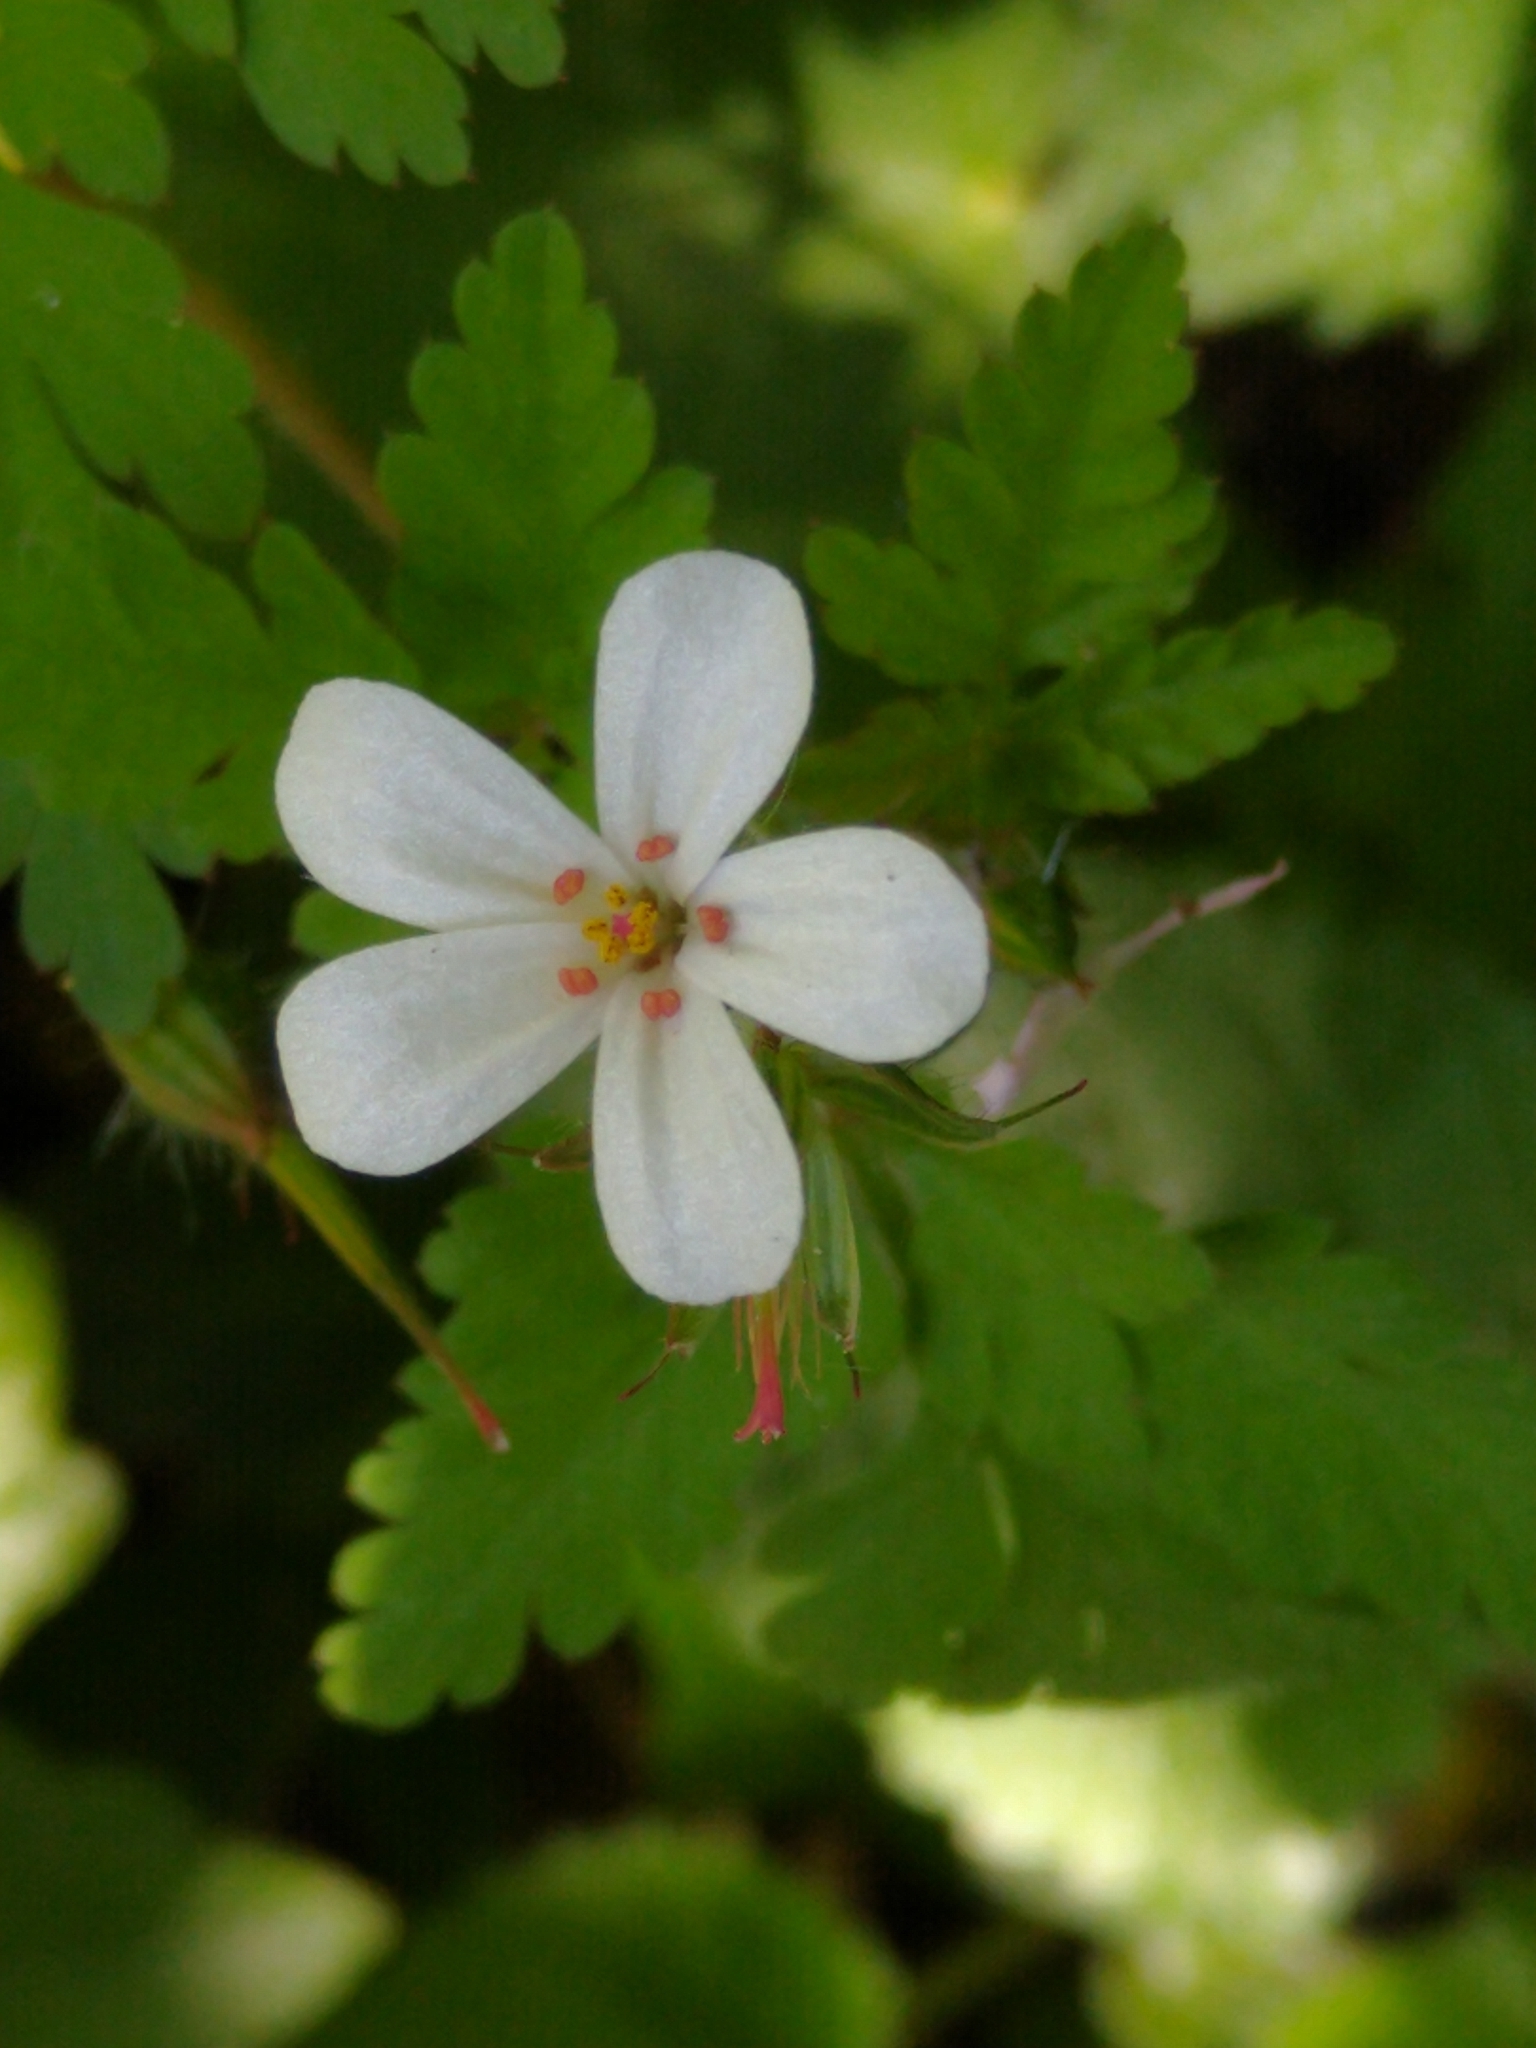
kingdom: Plantae
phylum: Tracheophyta
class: Magnoliopsida
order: Geraniales
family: Geraniaceae
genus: Geranium
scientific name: Geranium robertianum
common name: Herb-robert
